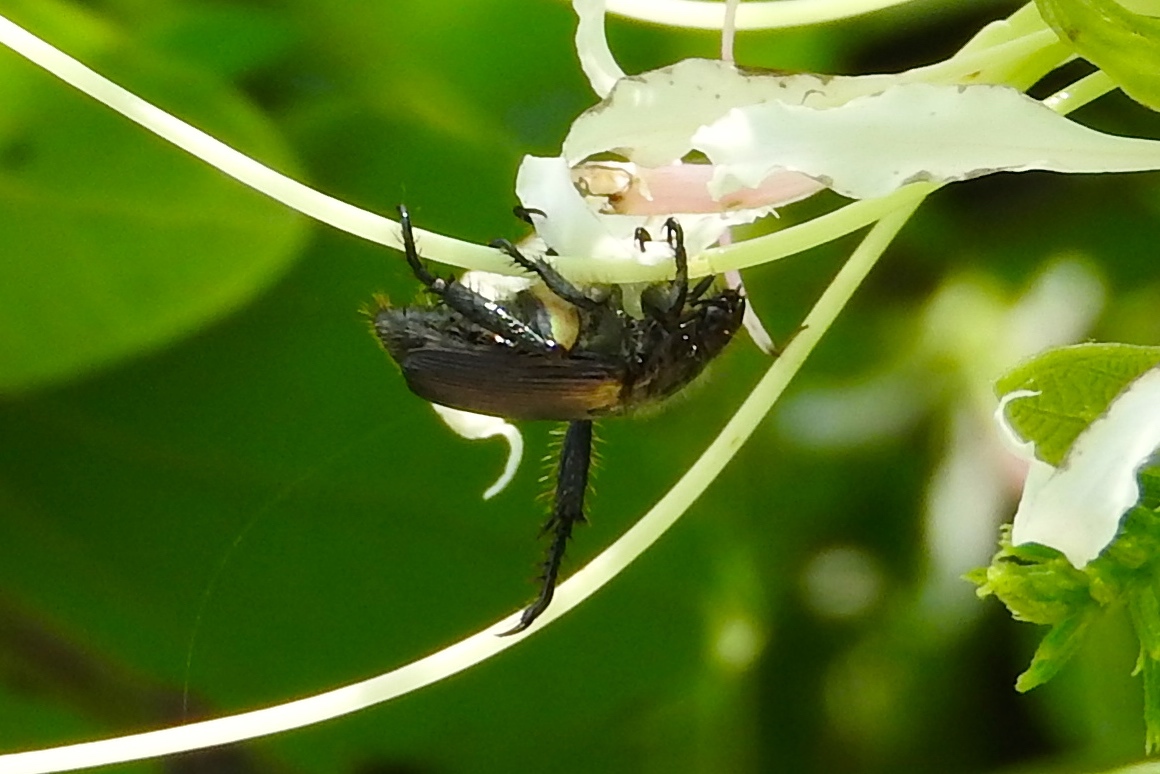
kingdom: Animalia
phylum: Arthropoda
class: Insecta
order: Coleoptera
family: Scarabaeidae
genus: Strigoderma
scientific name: Strigoderma
